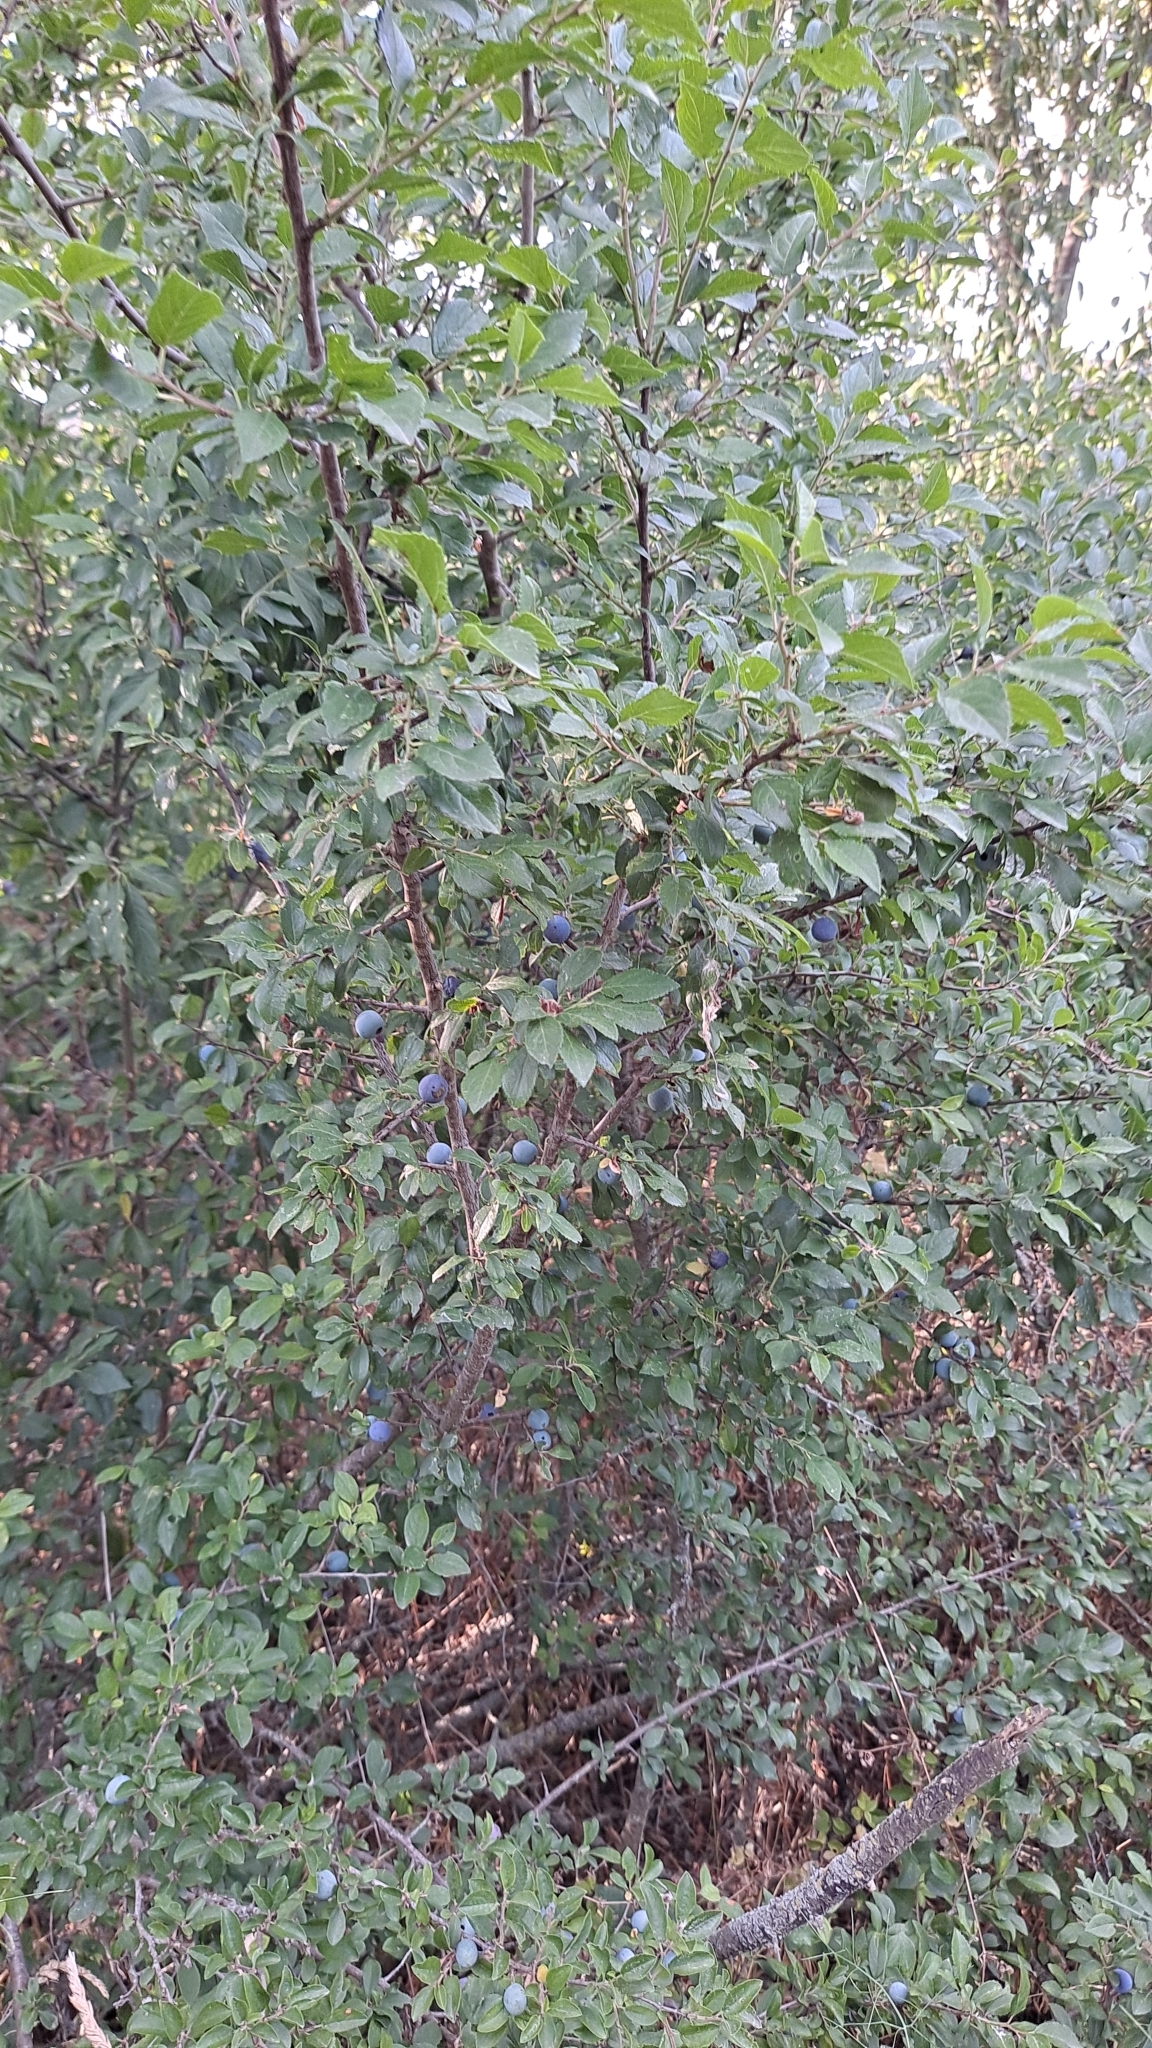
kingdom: Plantae
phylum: Tracheophyta
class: Magnoliopsida
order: Rosales
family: Rosaceae
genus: Prunus
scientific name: Prunus spinosa
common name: Blackthorn
